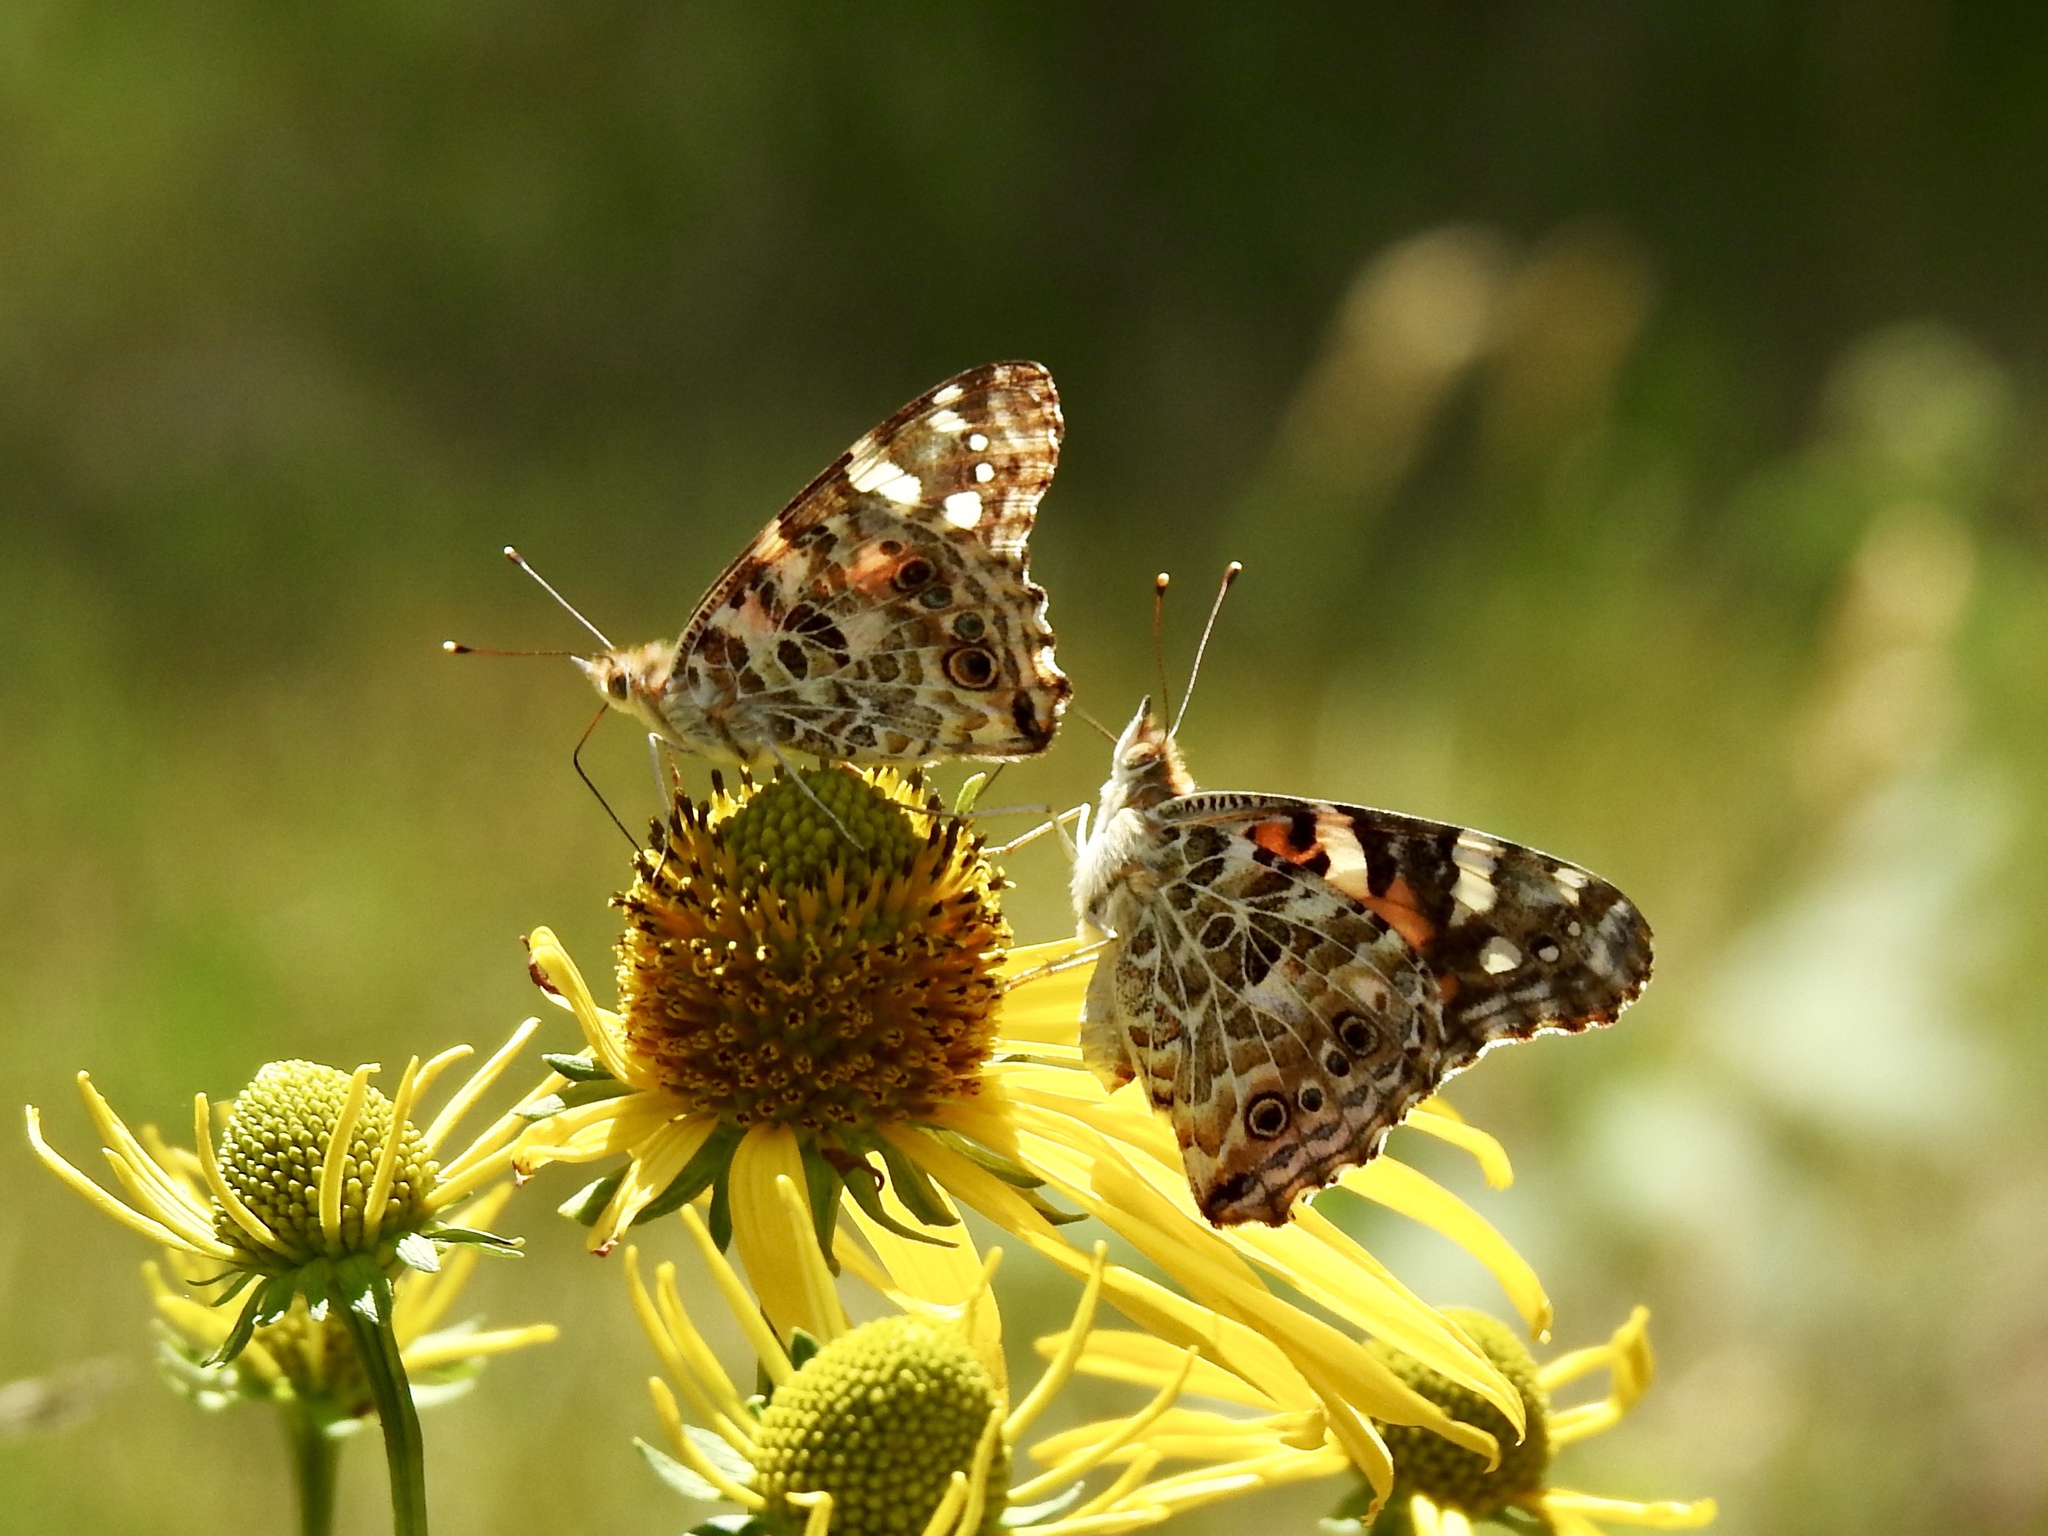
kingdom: Animalia
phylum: Arthropoda
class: Insecta
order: Lepidoptera
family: Nymphalidae
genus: Vanessa
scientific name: Vanessa cardui
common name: Painted lady
